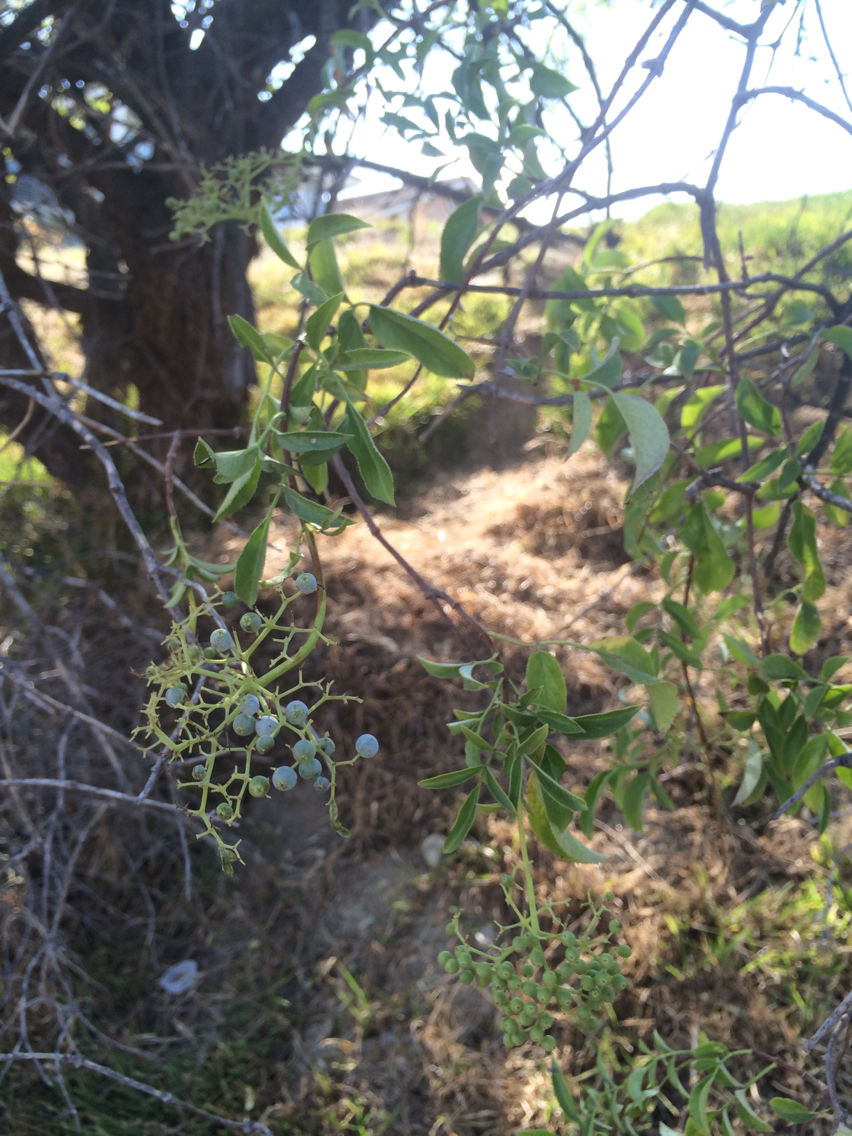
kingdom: Plantae
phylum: Tracheophyta
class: Magnoliopsida
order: Dipsacales
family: Viburnaceae
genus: Sambucus
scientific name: Sambucus cerulea
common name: Blue elder
